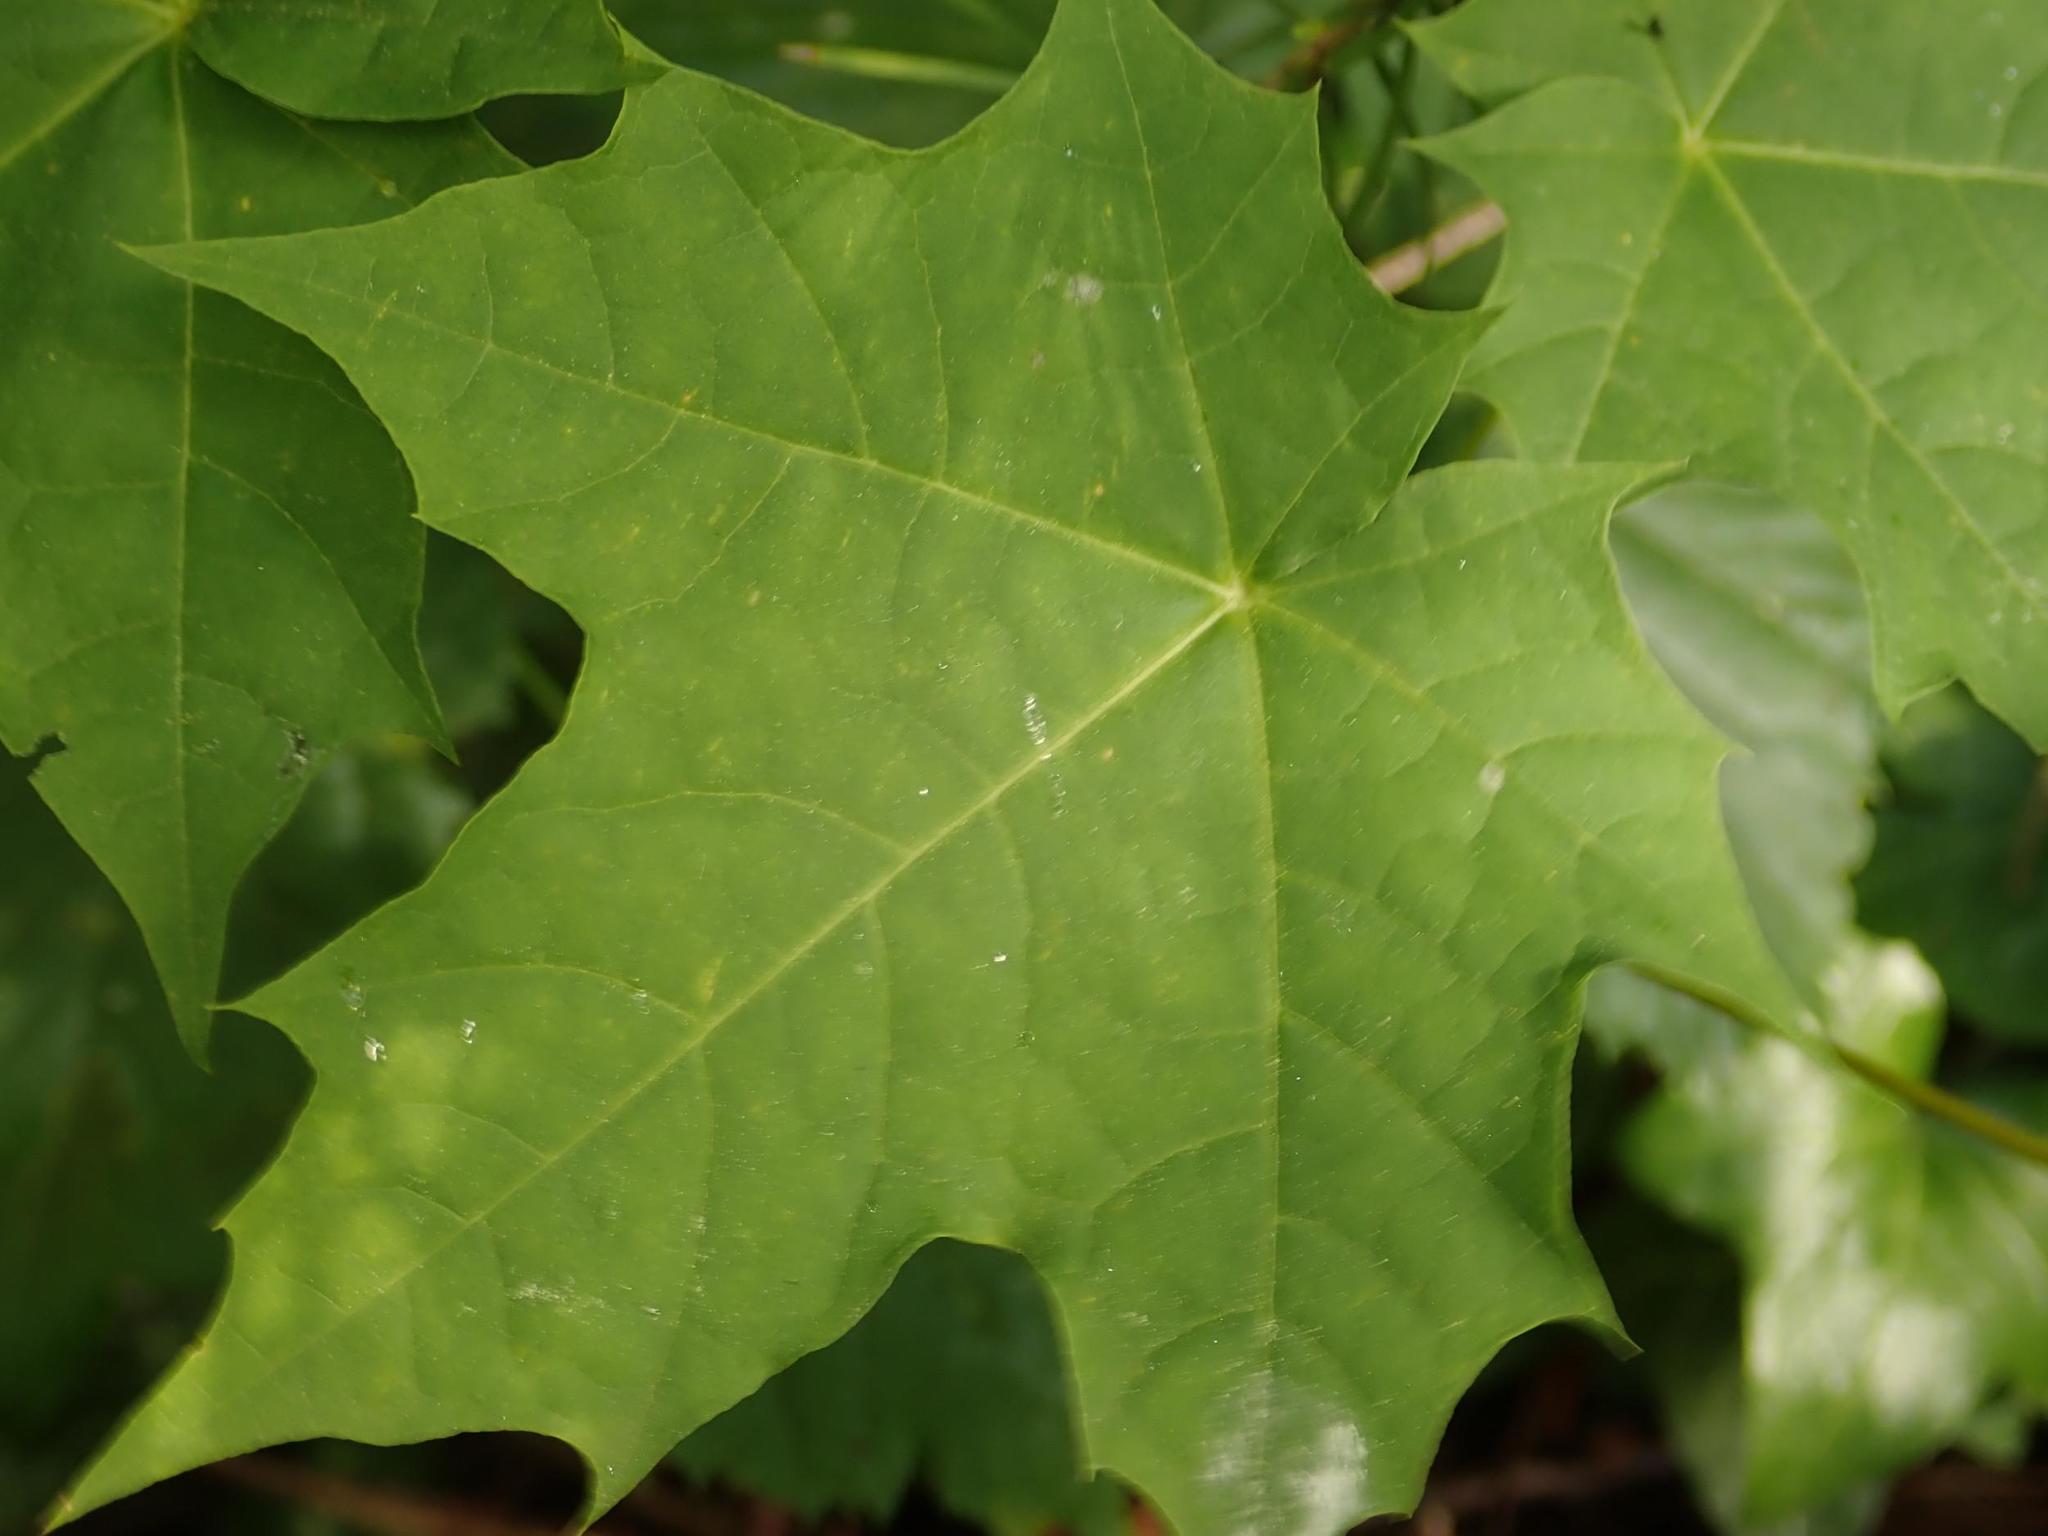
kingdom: Plantae
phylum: Tracheophyta
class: Magnoliopsida
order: Sapindales
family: Sapindaceae
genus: Acer
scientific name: Acer platanoides
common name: Norway maple
